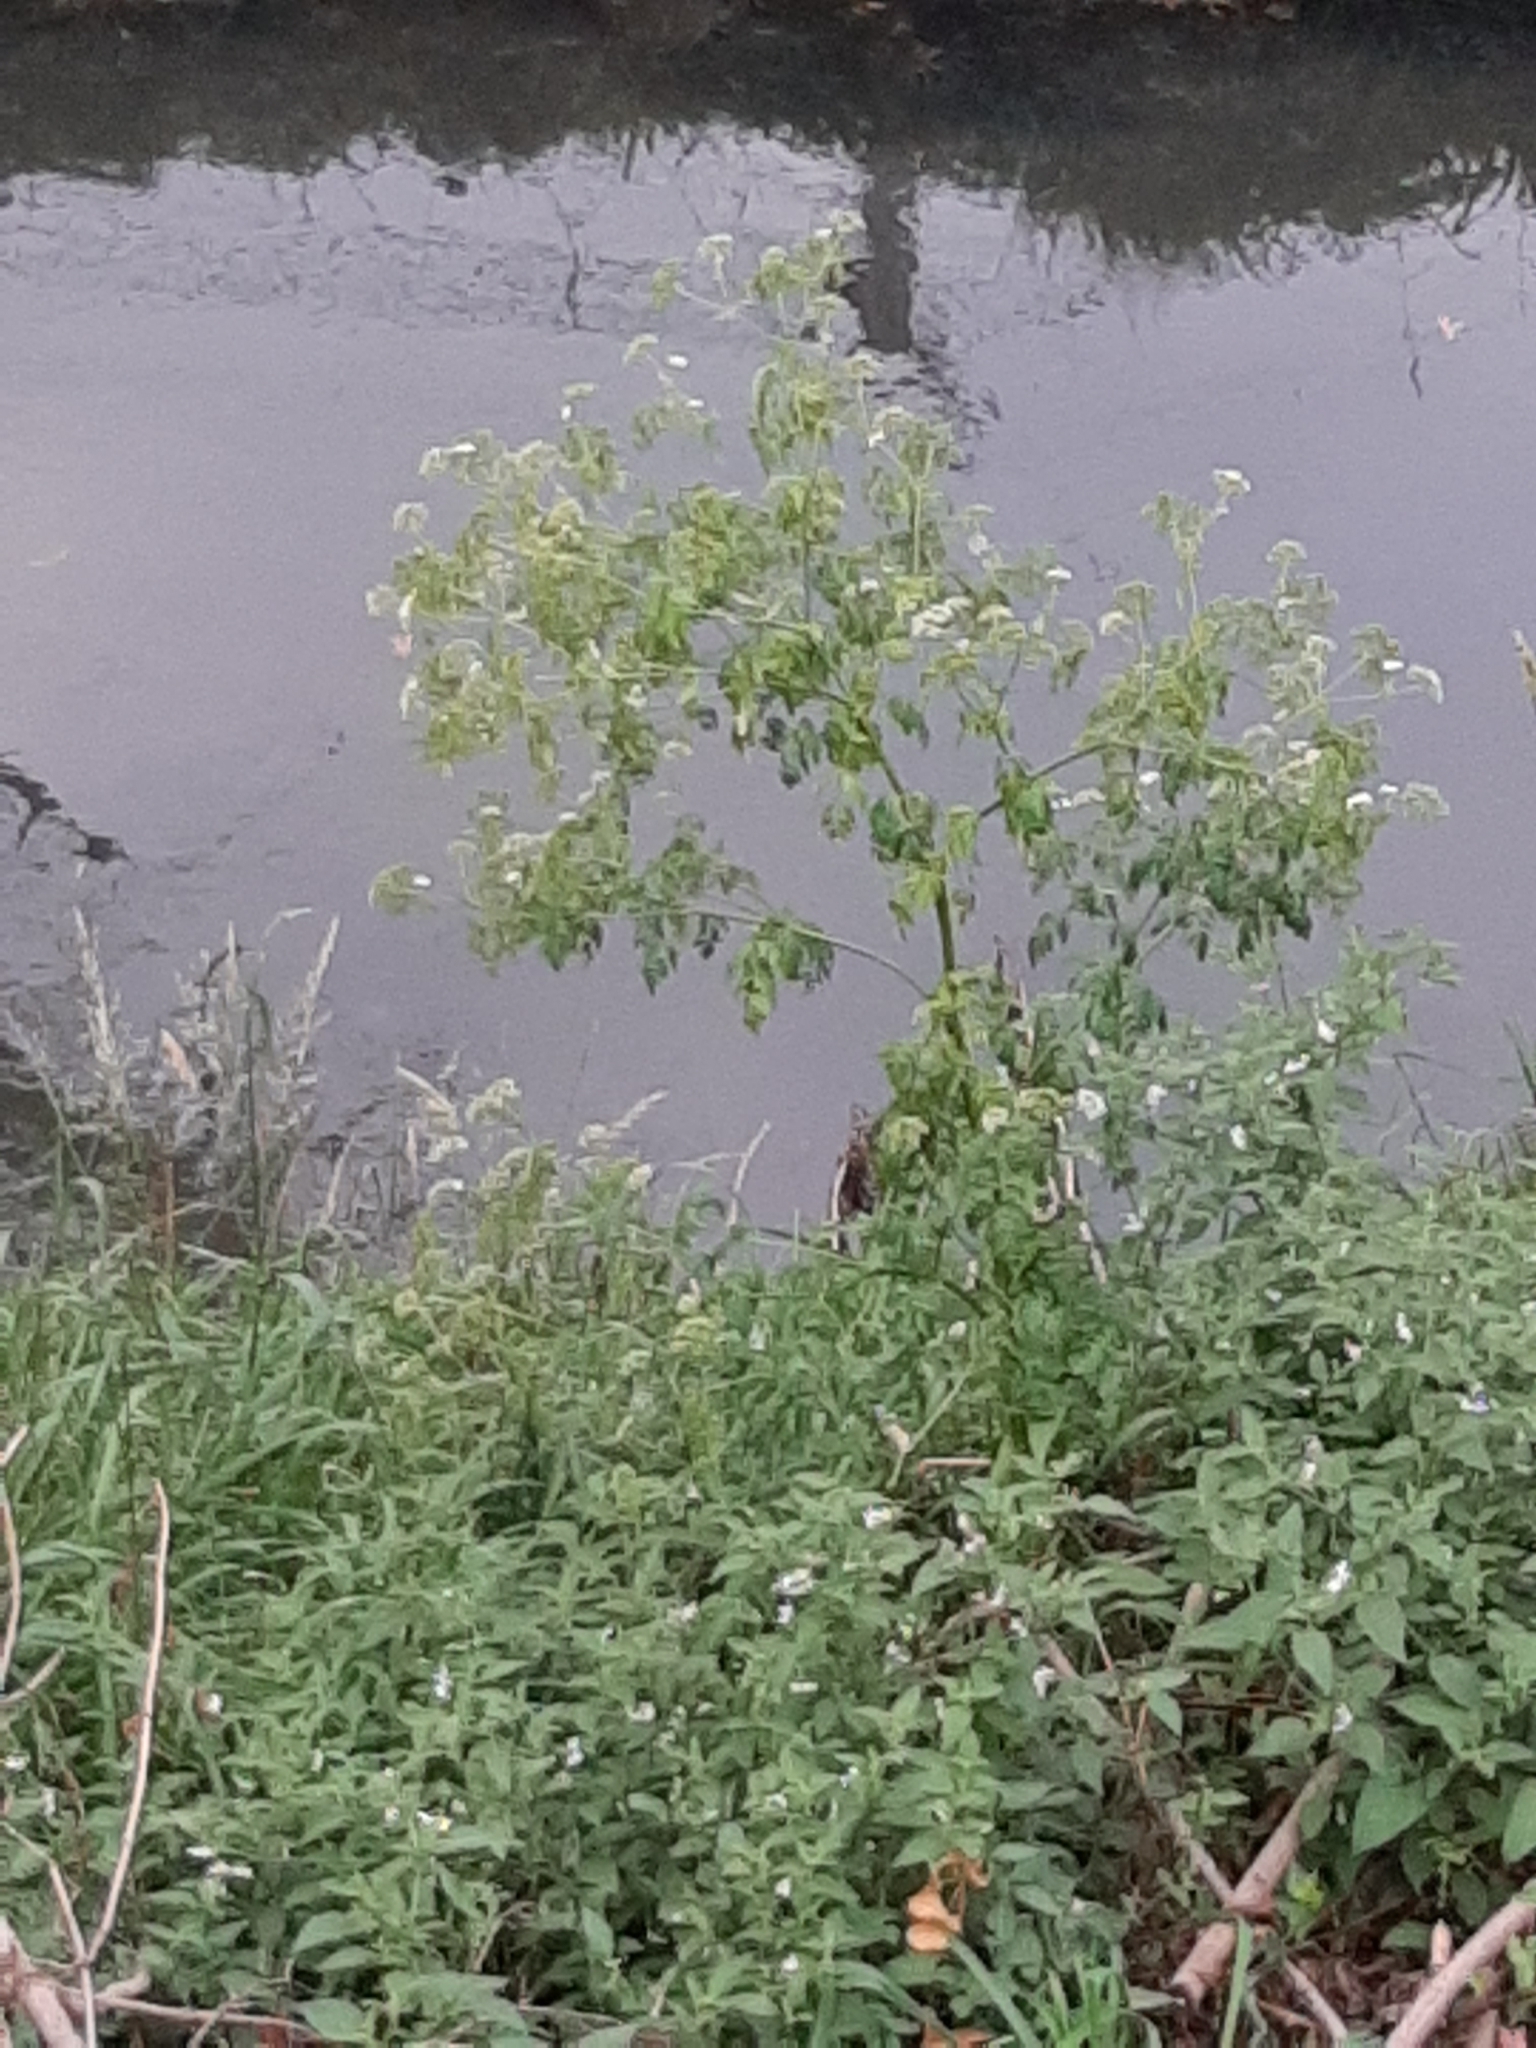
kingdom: Plantae
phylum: Tracheophyta
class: Magnoliopsida
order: Apiales
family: Apiaceae
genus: Conium
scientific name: Conium maculatum
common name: Hemlock
